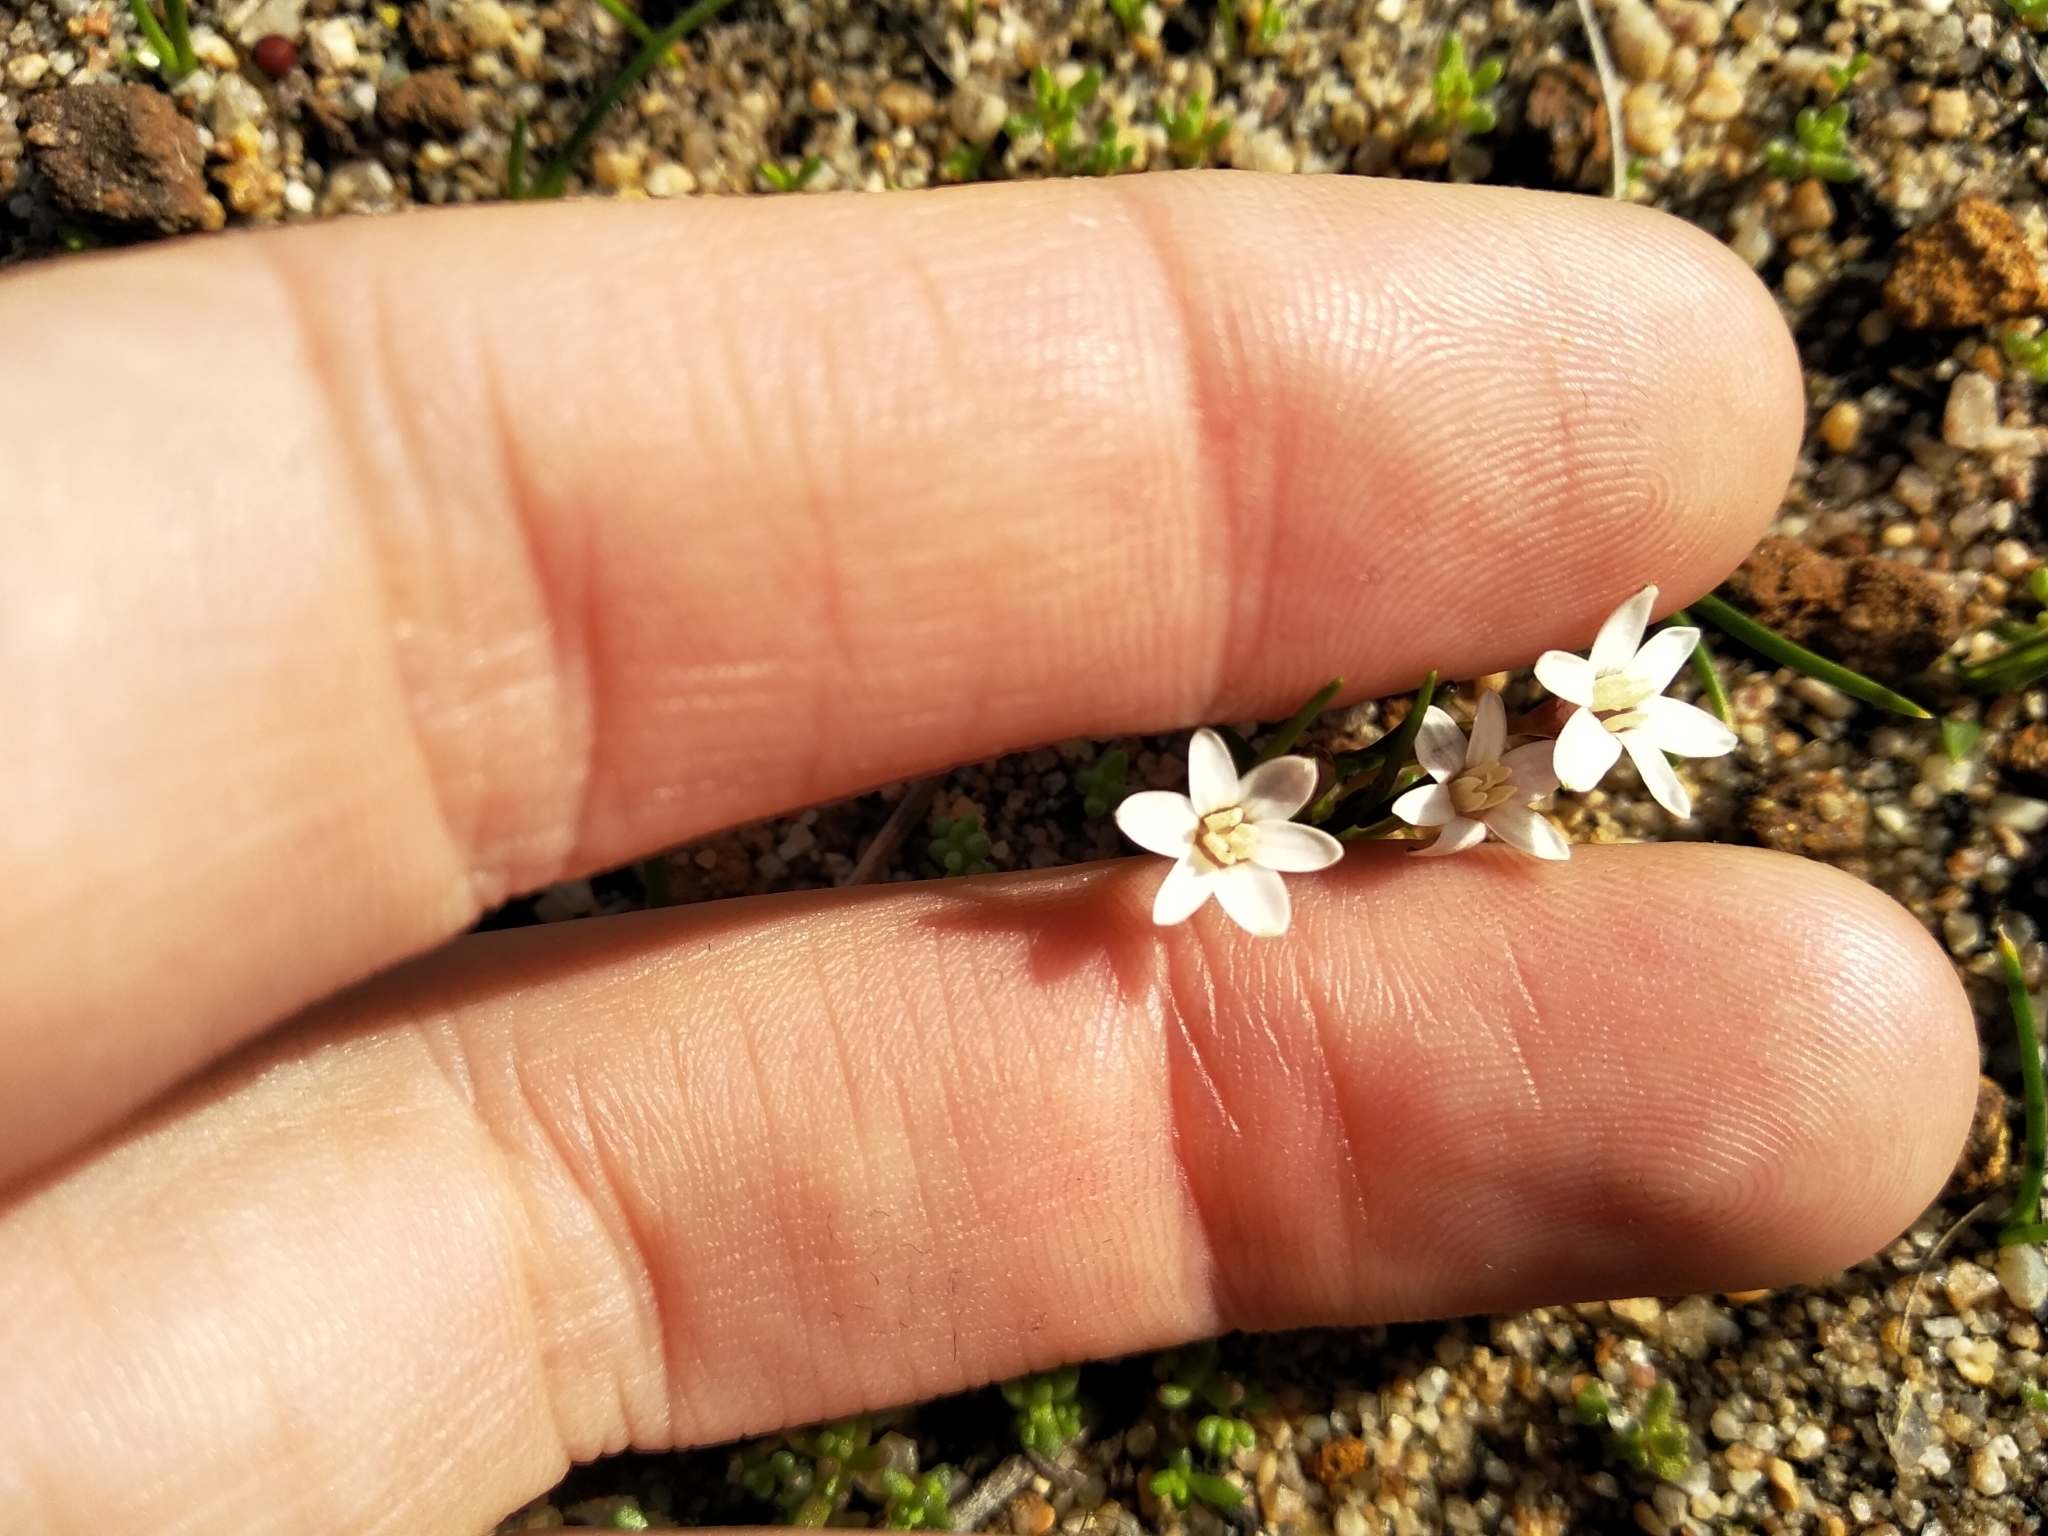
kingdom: Plantae
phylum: Tracheophyta
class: Liliopsida
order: Asparagales
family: Hypoxidaceae
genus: Pauridia
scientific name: Pauridia minuta
